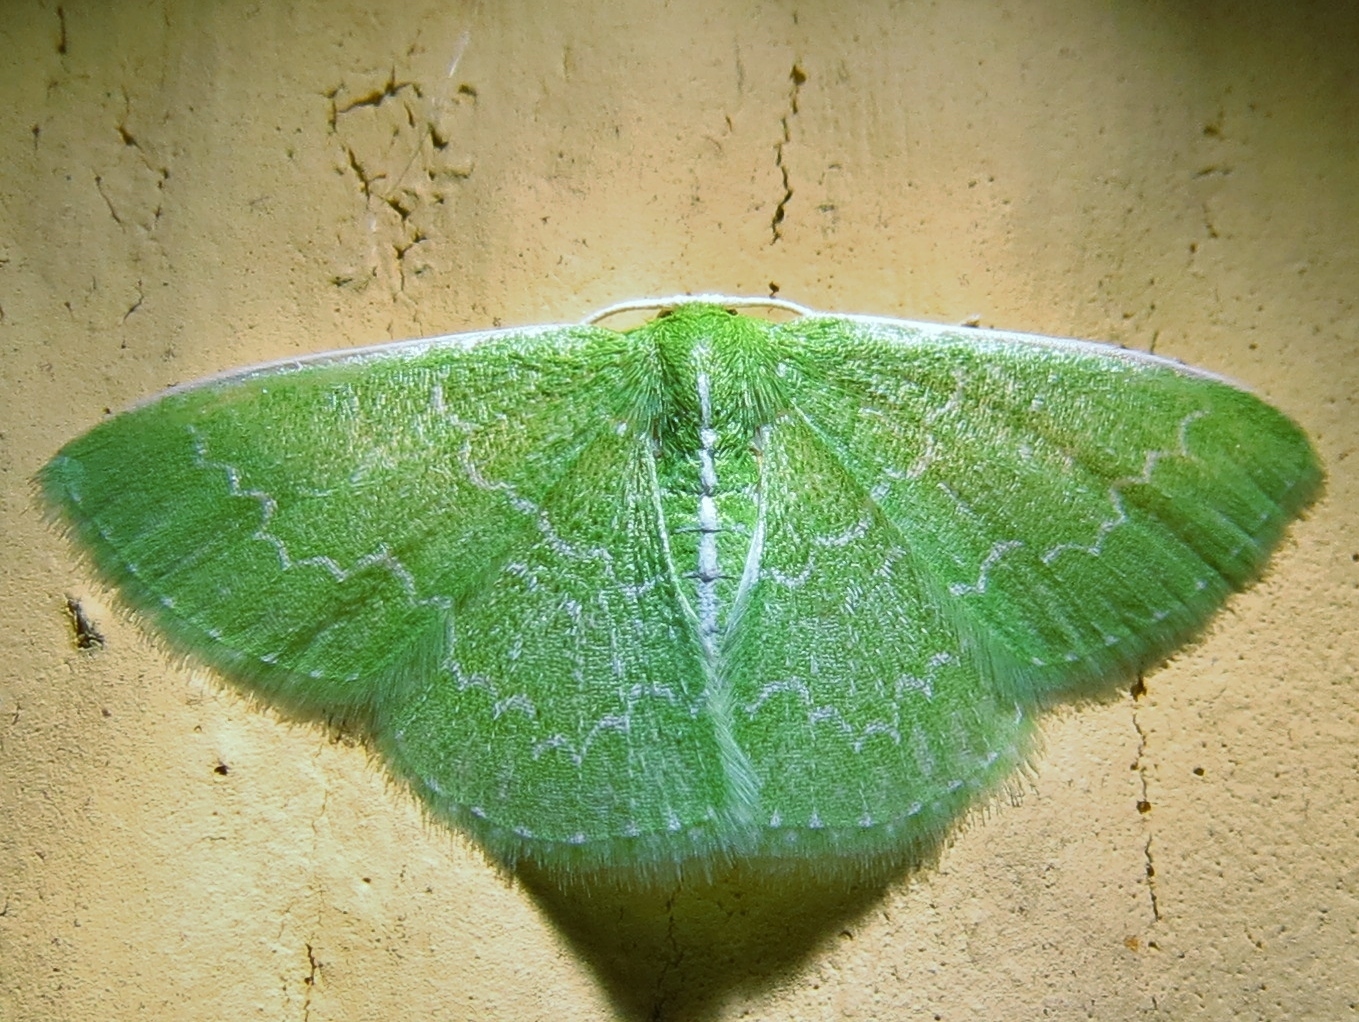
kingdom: Animalia
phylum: Arthropoda
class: Insecta
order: Lepidoptera
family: Geometridae
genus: Synchlora
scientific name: Synchlora frondaria
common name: Southern emerald
